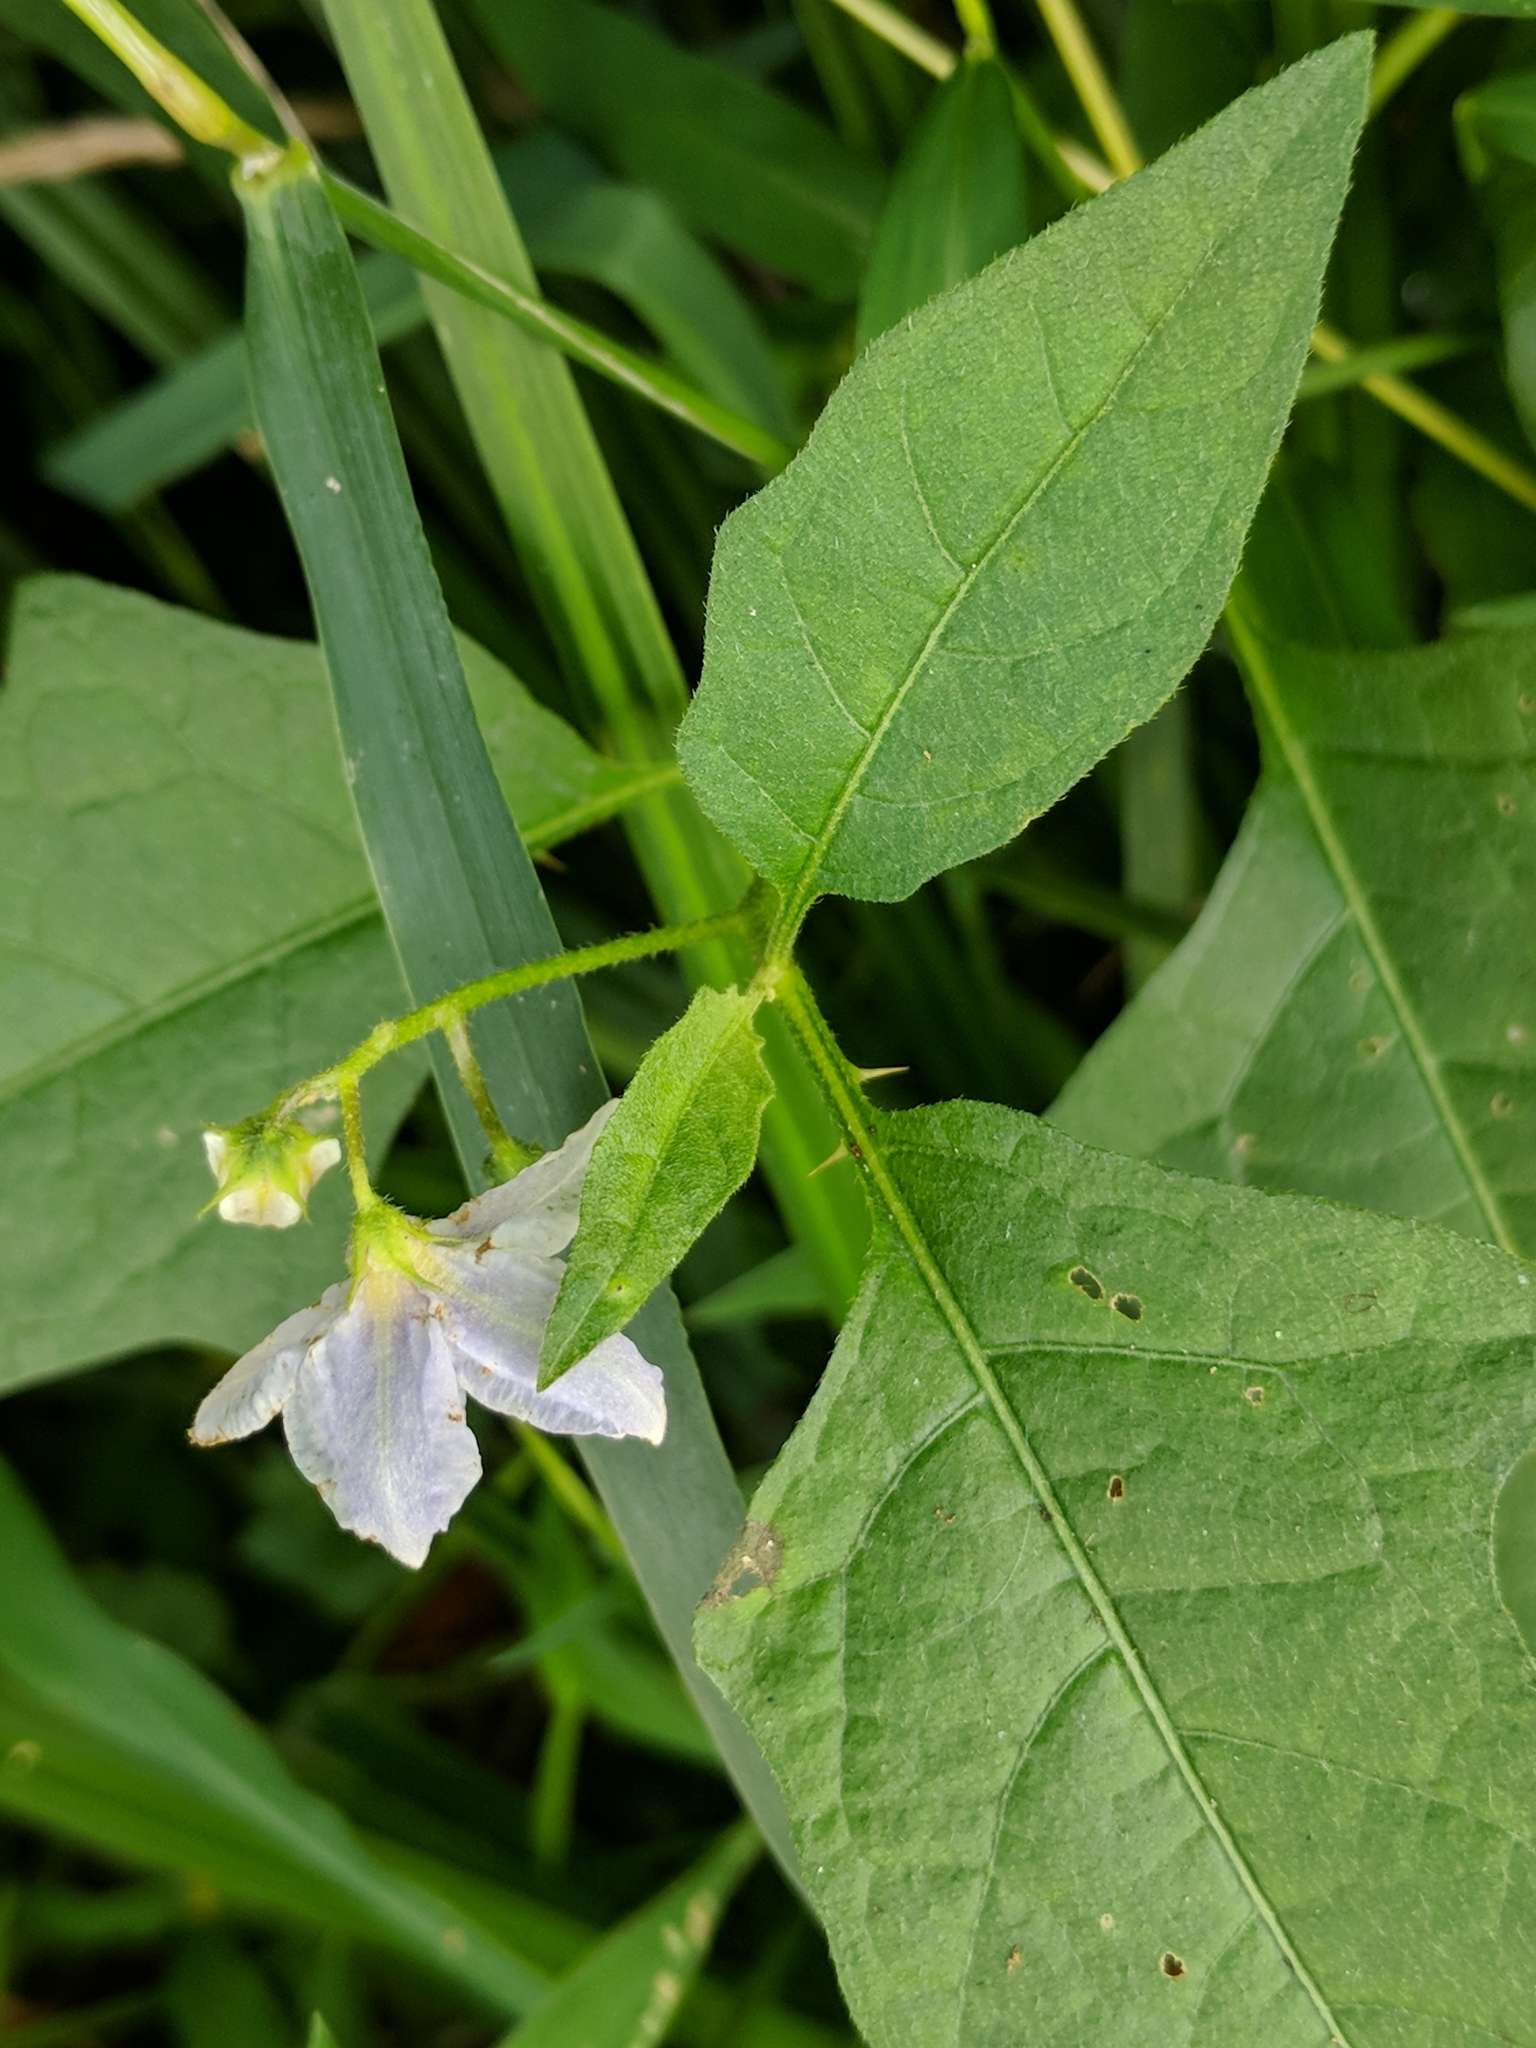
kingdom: Plantae
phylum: Tracheophyta
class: Magnoliopsida
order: Solanales
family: Solanaceae
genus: Solanum
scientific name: Solanum carolinense
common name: Horse-nettle
